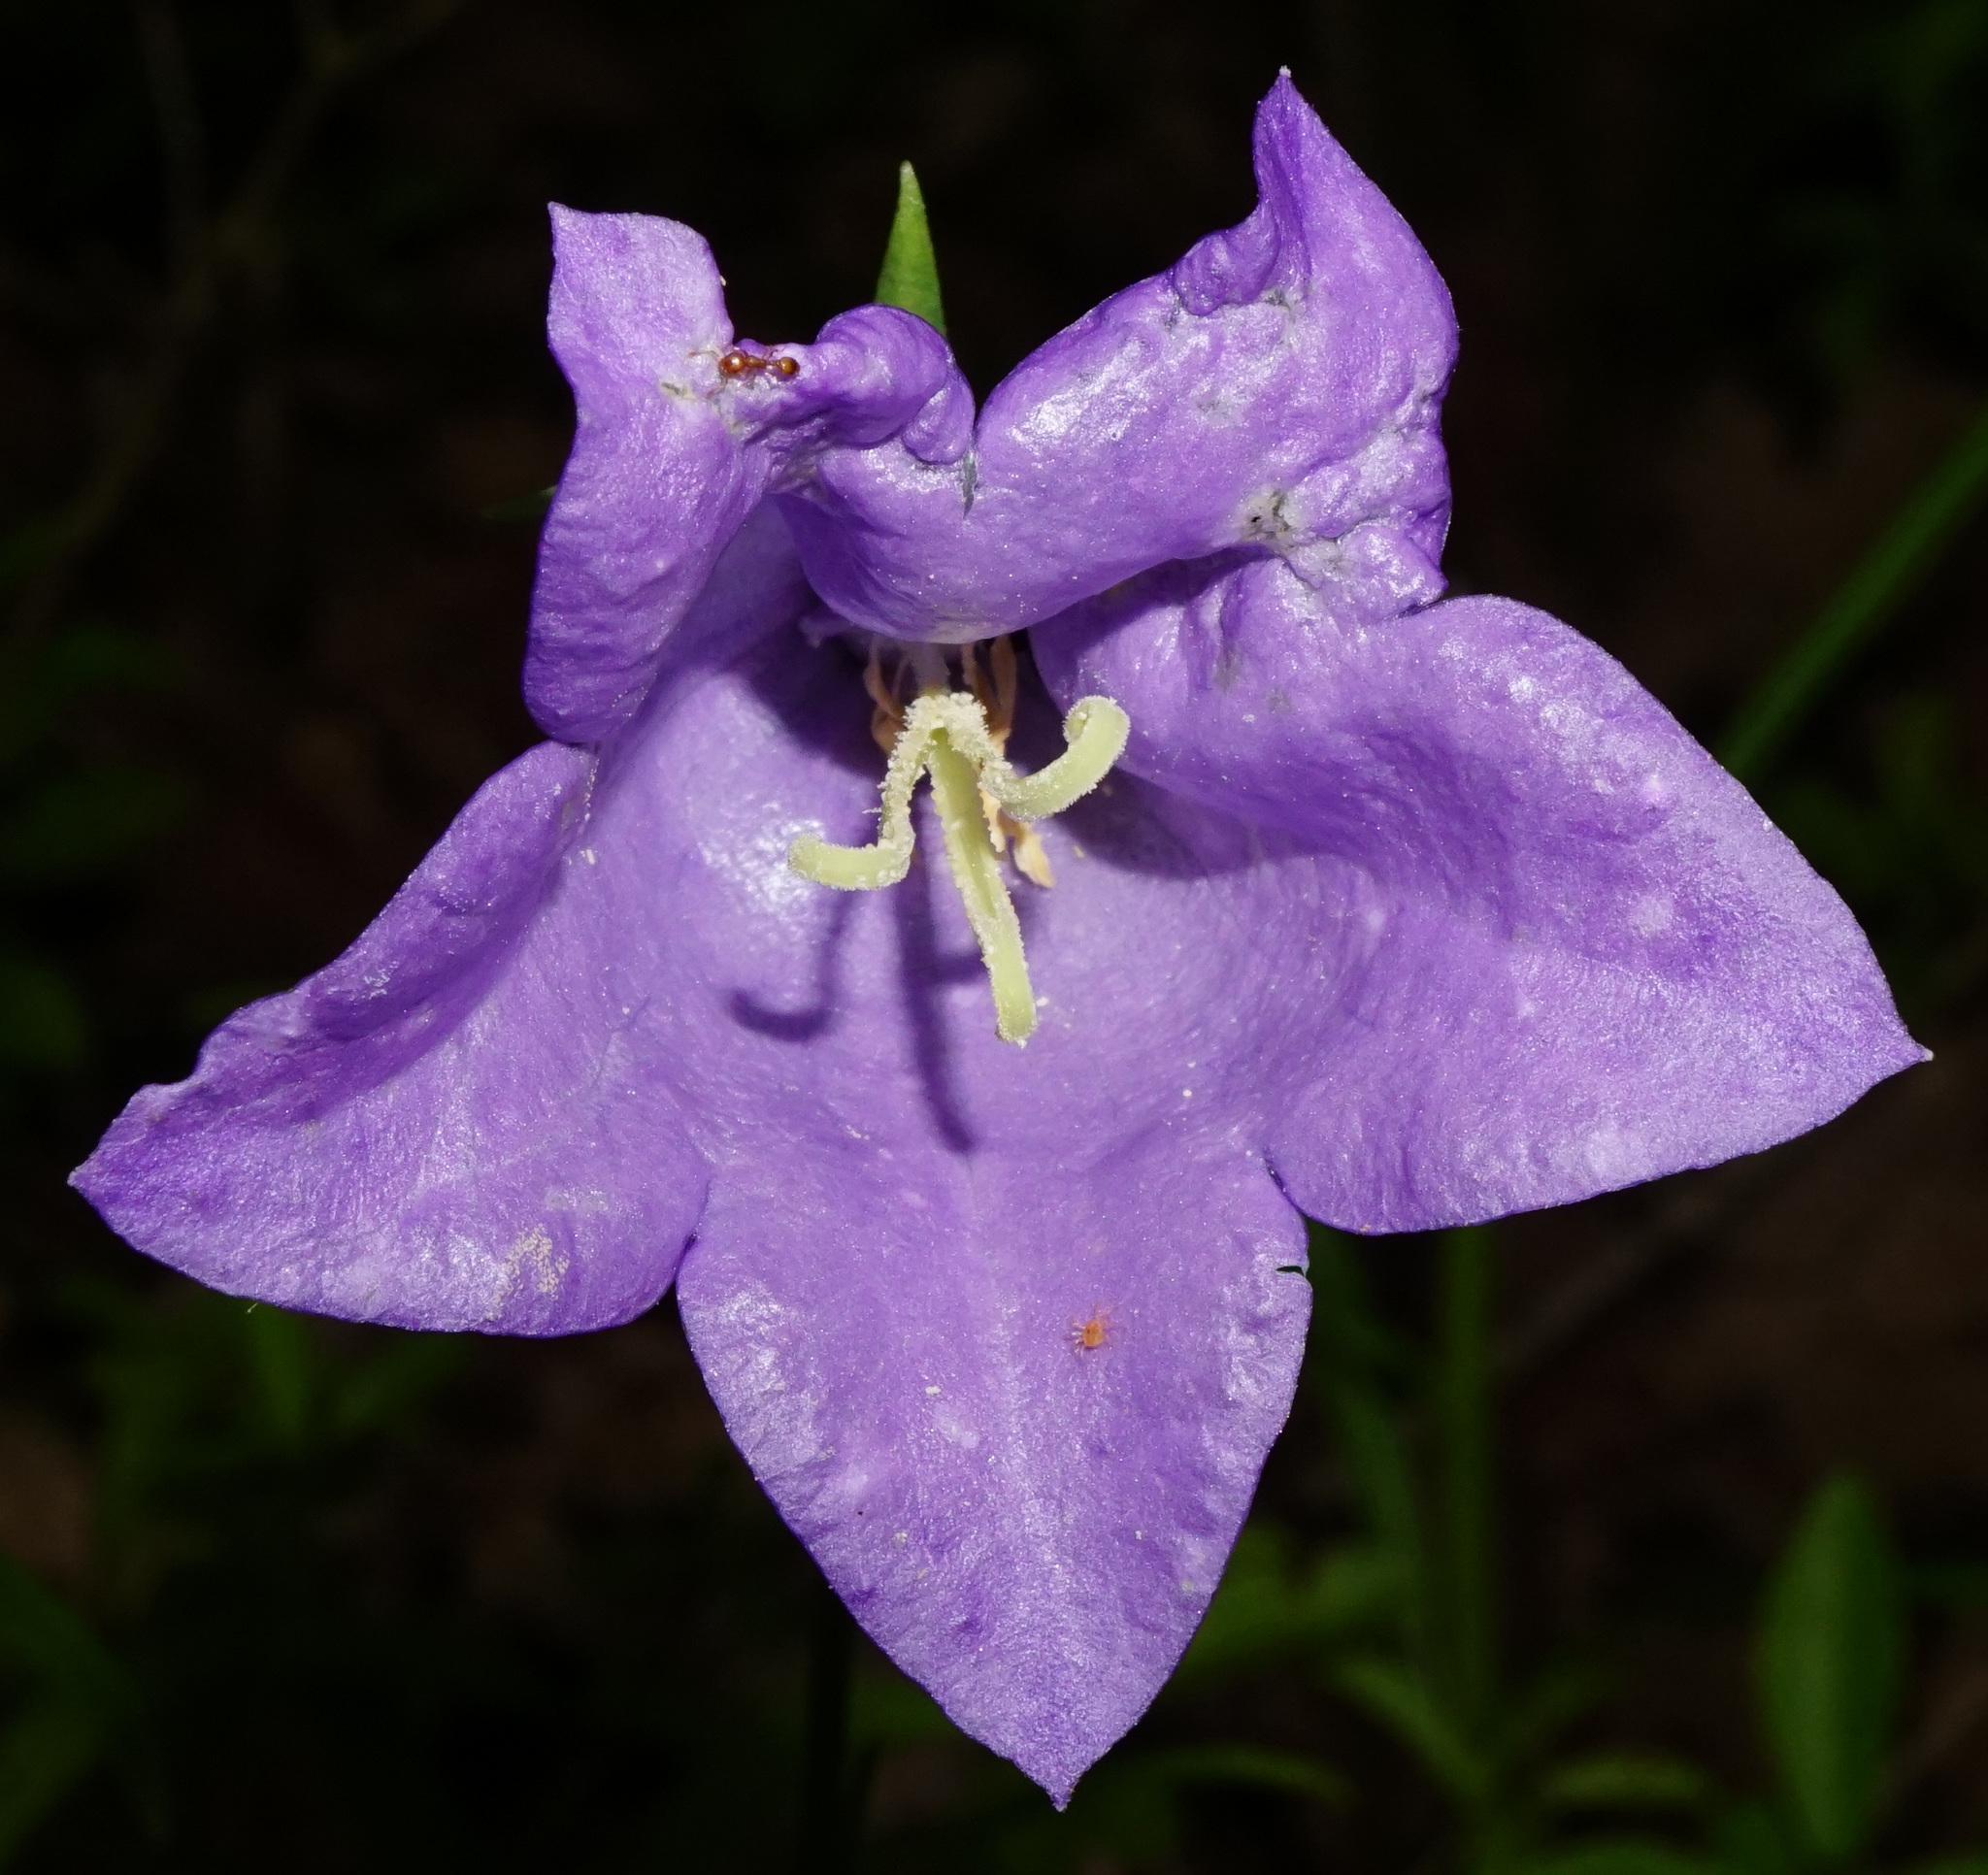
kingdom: Plantae
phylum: Tracheophyta
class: Magnoliopsida
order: Asterales
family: Campanulaceae
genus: Campanula
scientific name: Campanula persicifolia
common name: Peach-leaved bellflower
